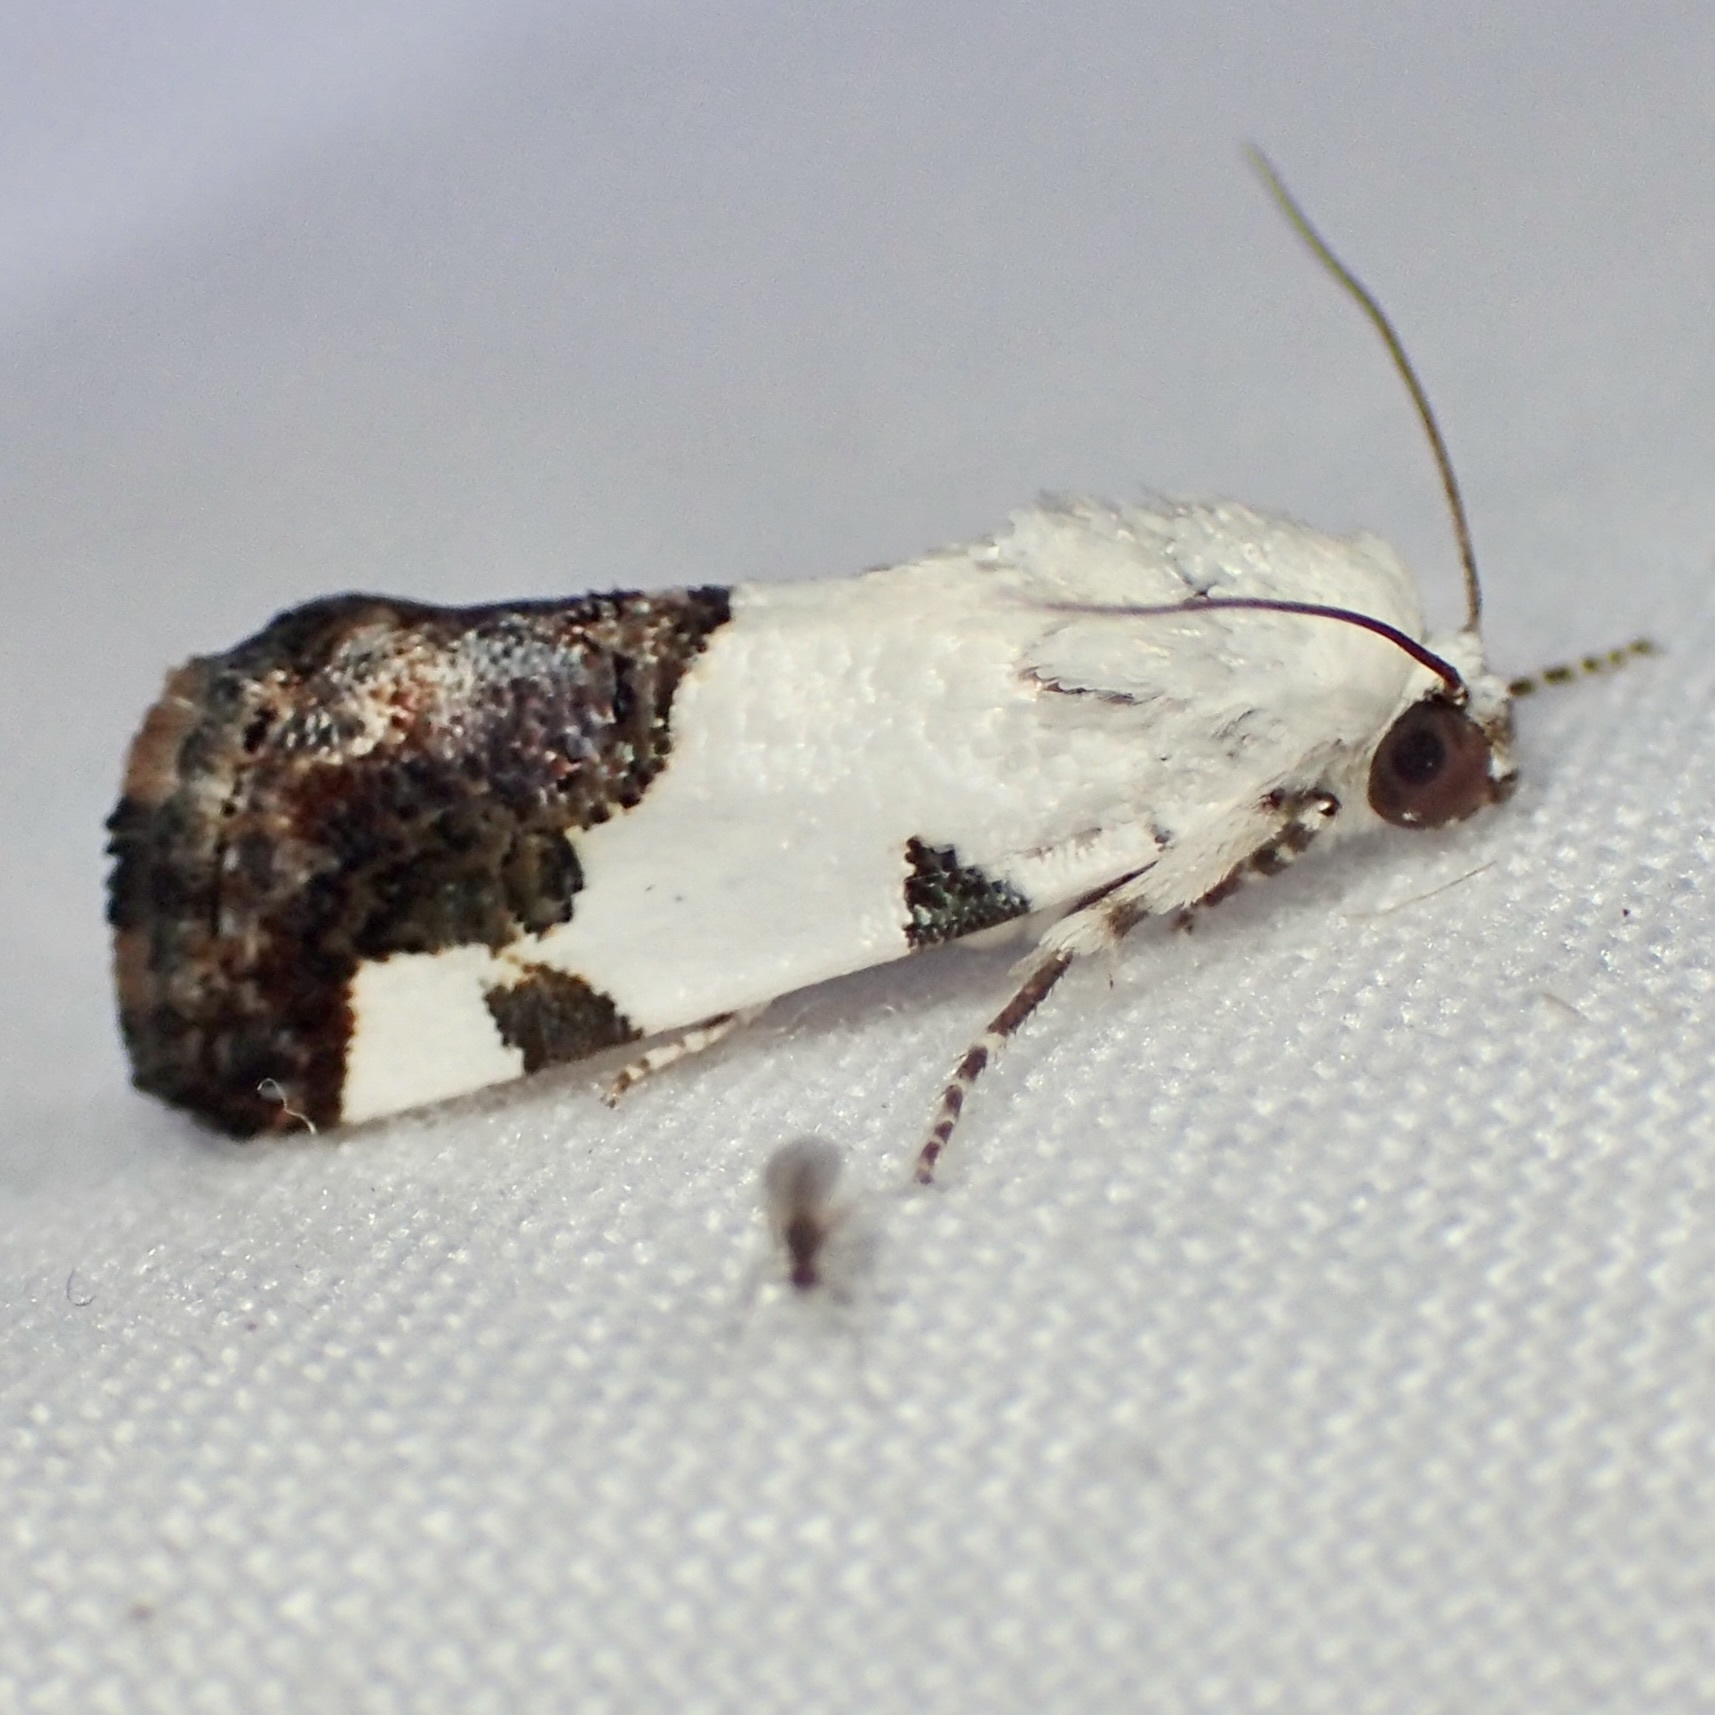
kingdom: Animalia
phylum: Arthropoda
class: Insecta
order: Lepidoptera
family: Noctuidae
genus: Acontia
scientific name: Acontia quadriplaga
